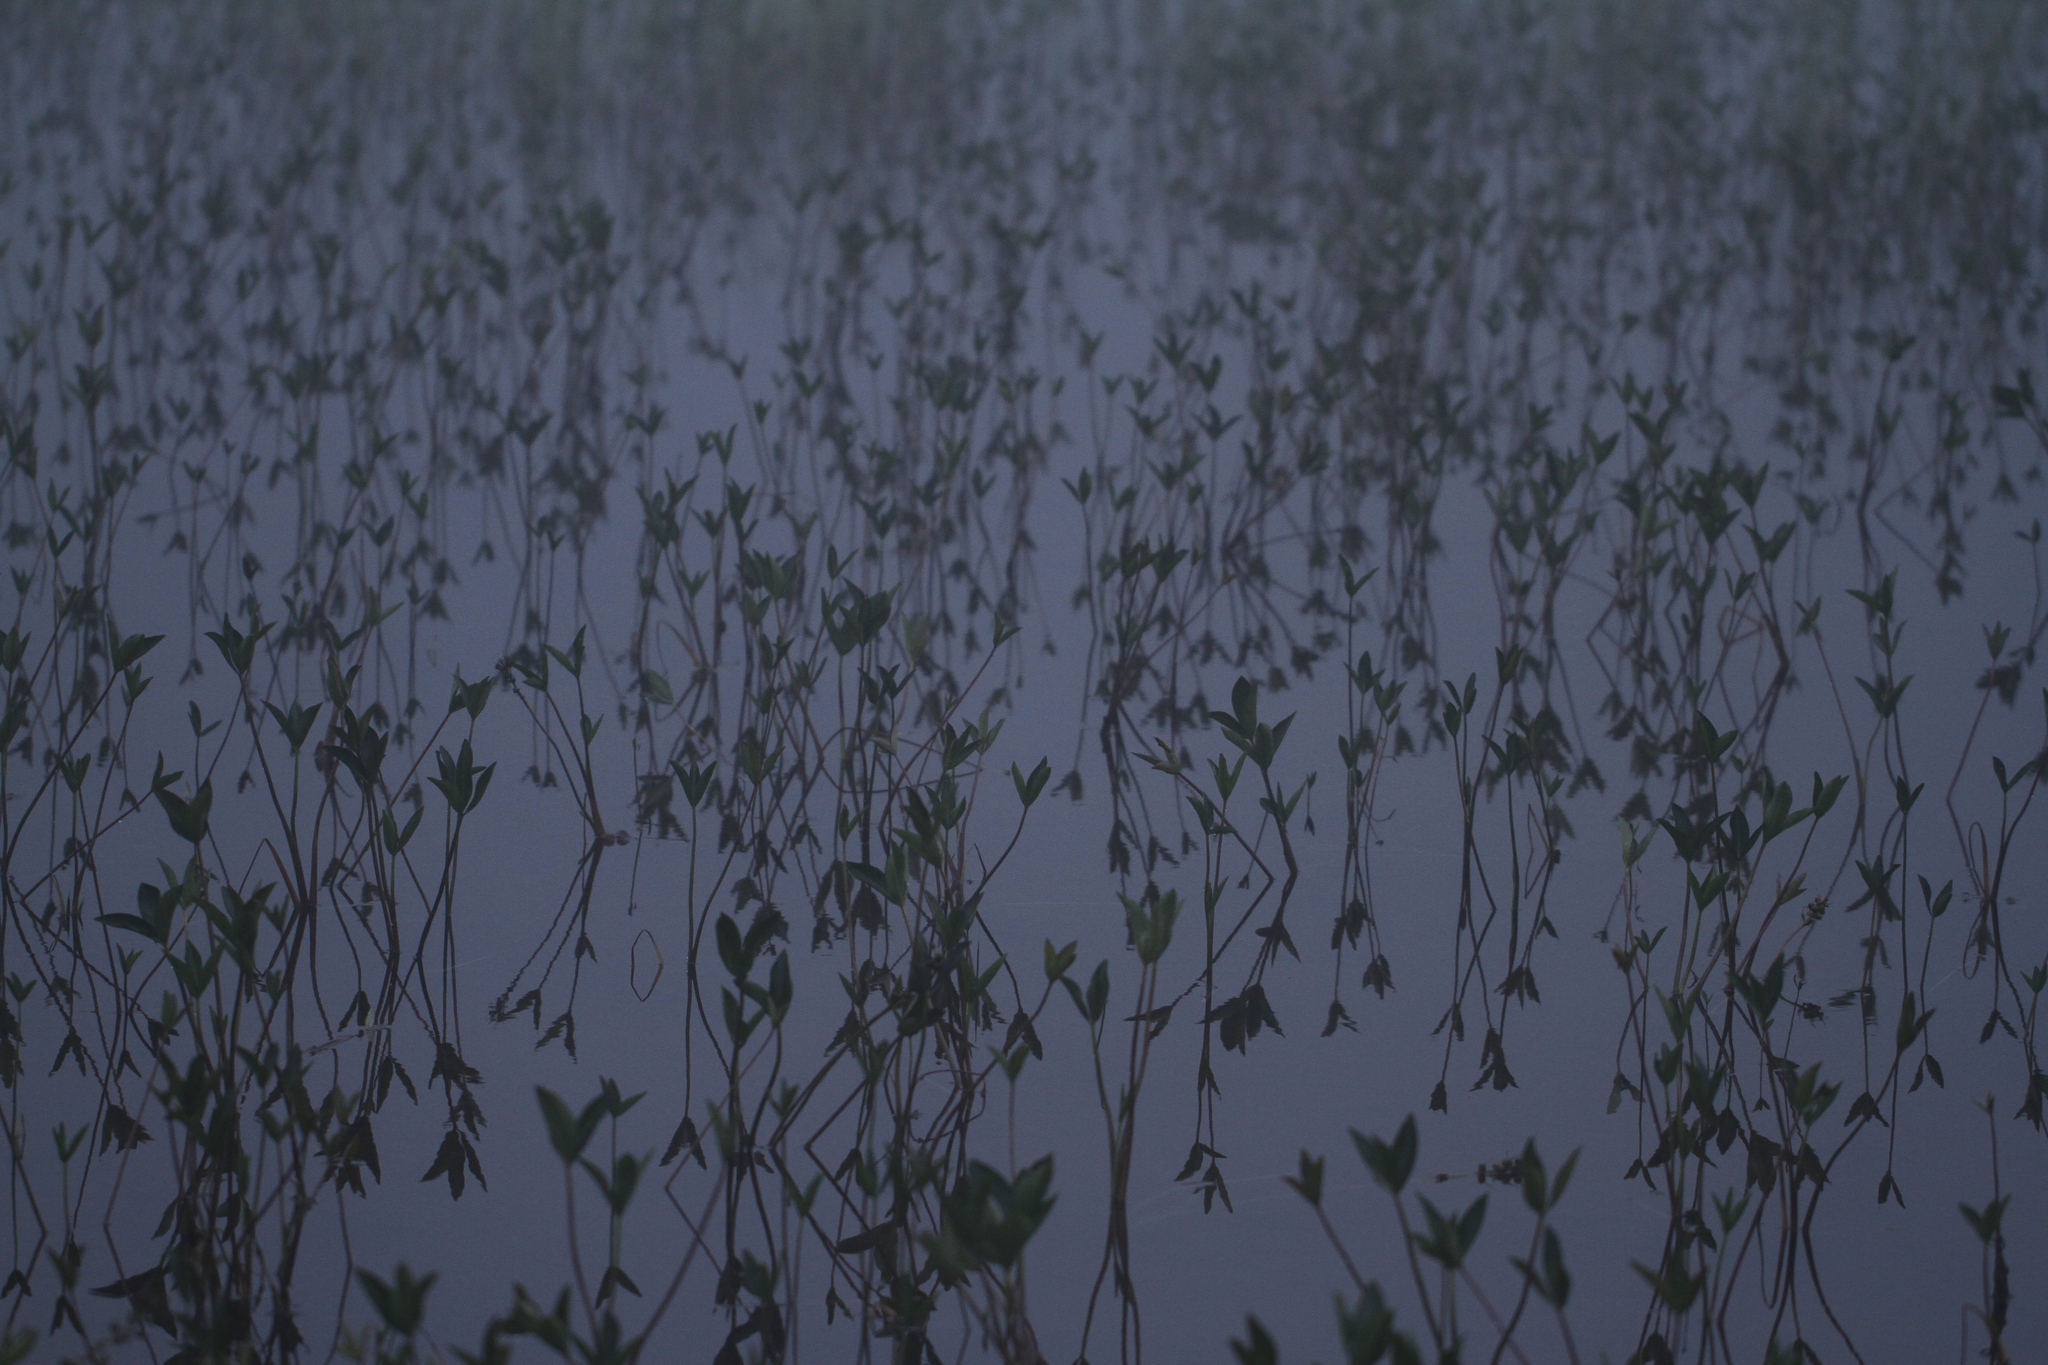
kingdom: Plantae
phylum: Tracheophyta
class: Magnoliopsida
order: Asterales
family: Menyanthaceae
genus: Menyanthes
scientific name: Menyanthes trifoliata
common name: Bogbean
